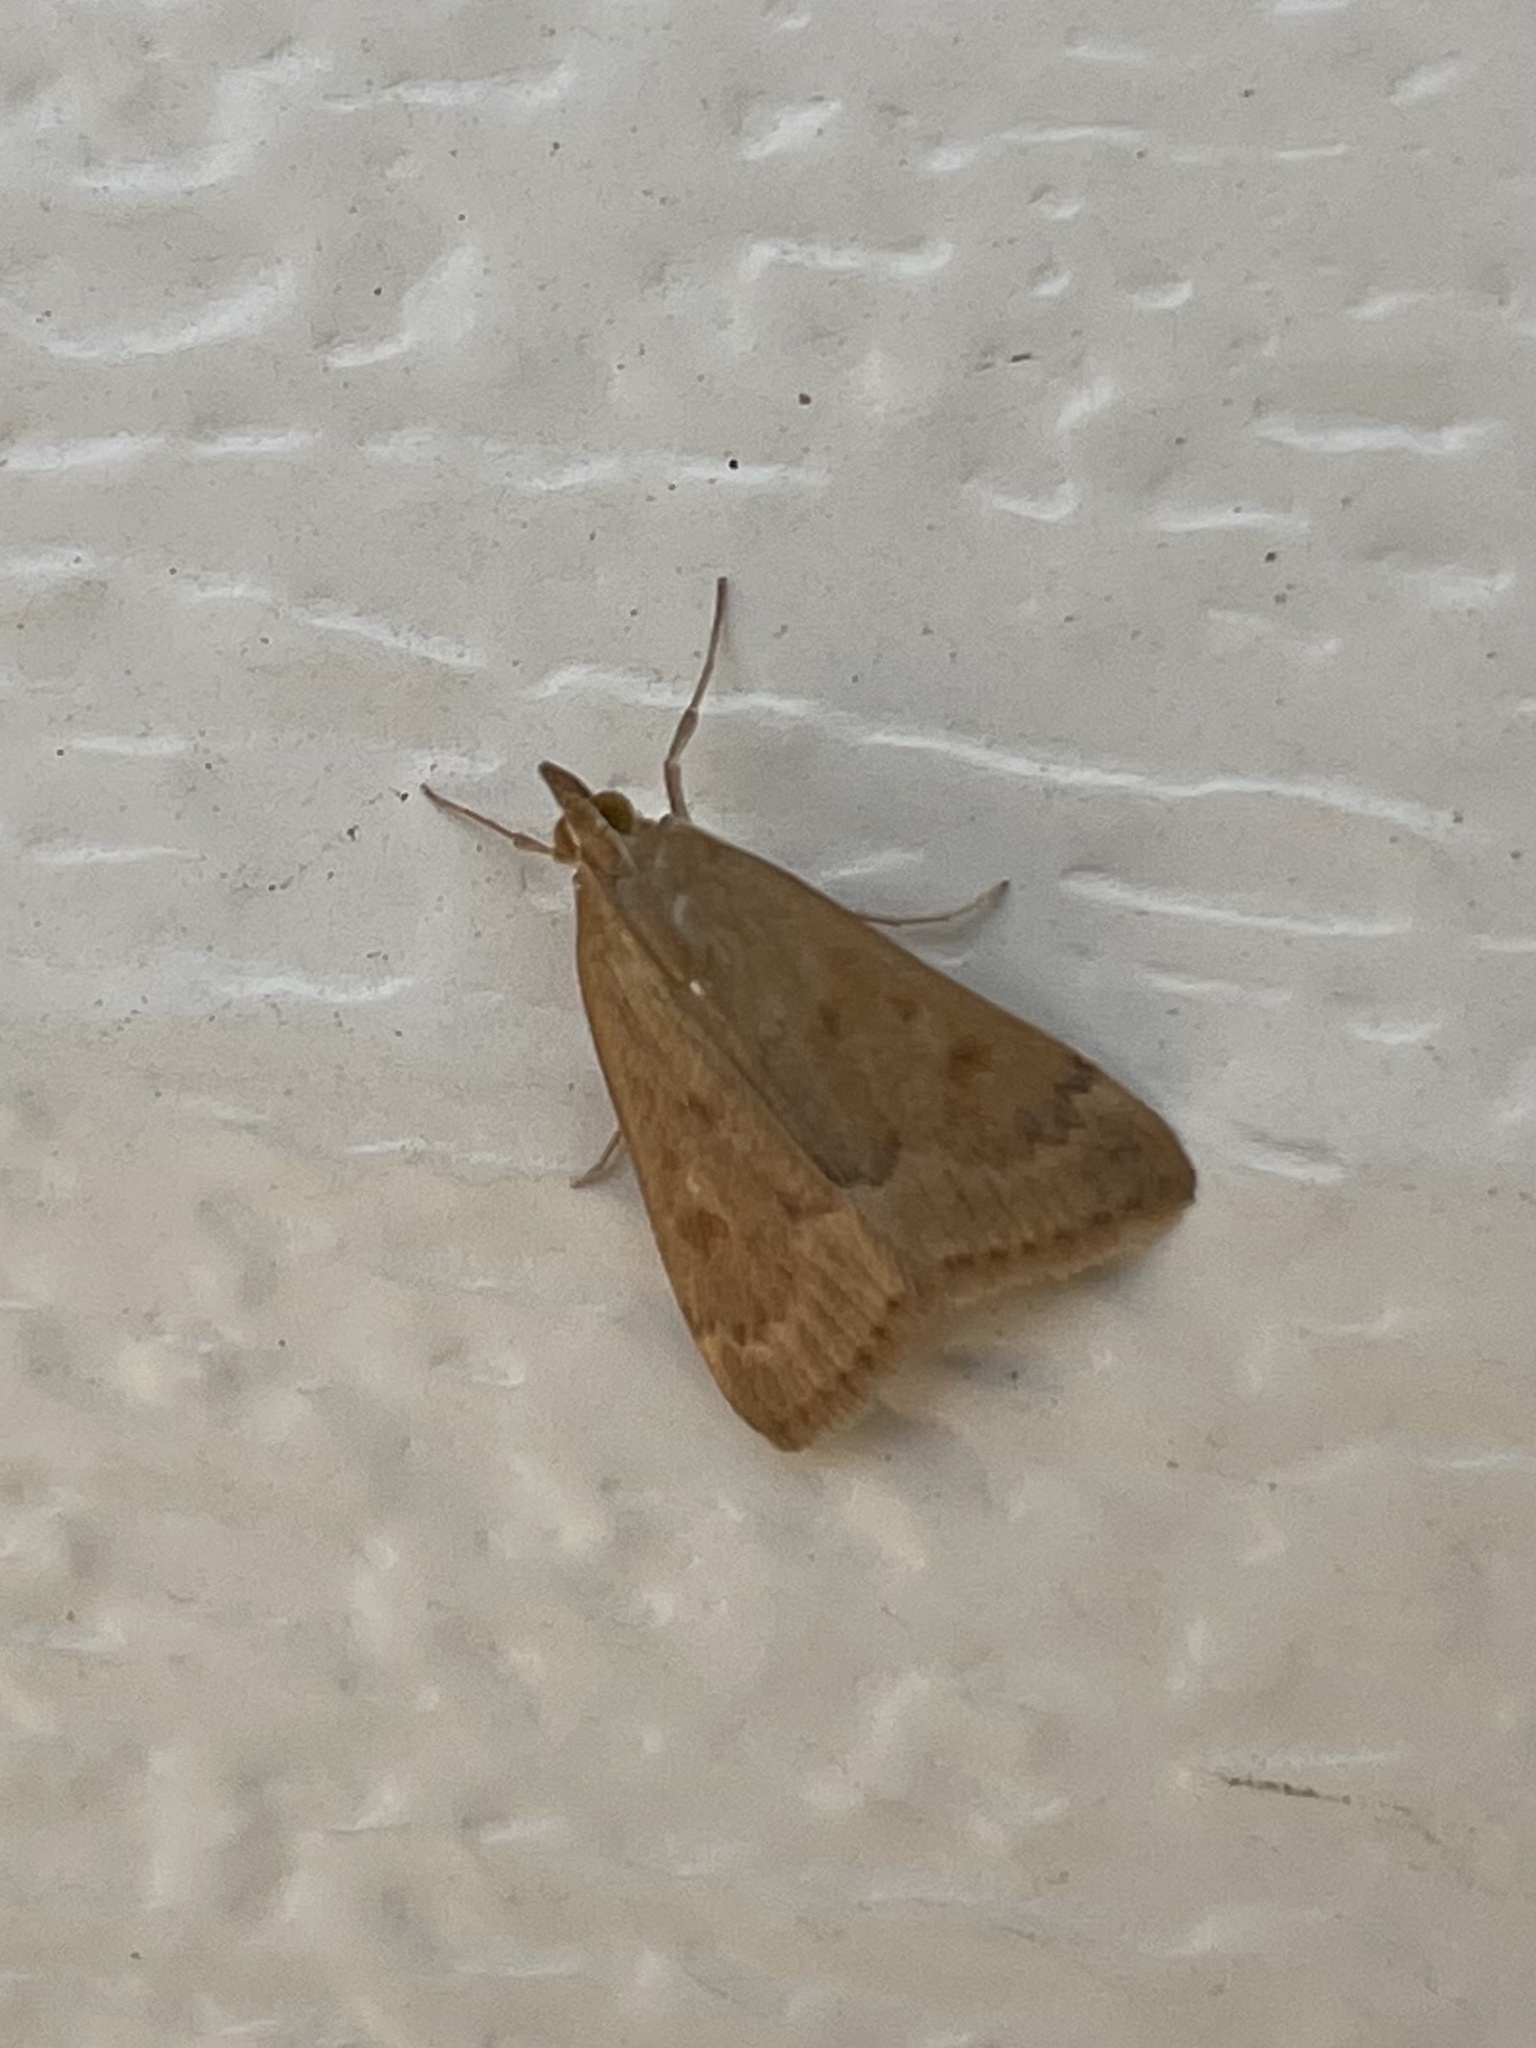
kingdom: Animalia
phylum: Arthropoda
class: Insecta
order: Lepidoptera
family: Crambidae
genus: Achyra
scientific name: Achyra rantalis
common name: Garden webworm
